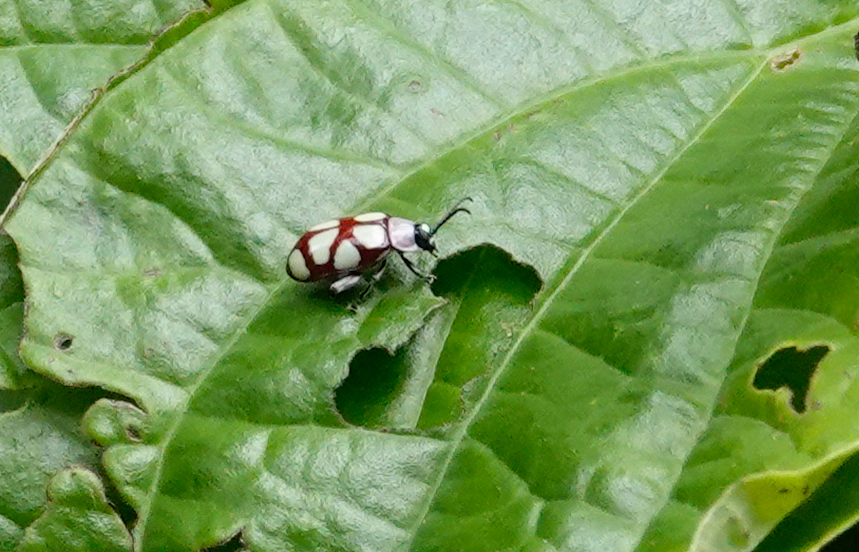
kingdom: Animalia
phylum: Arthropoda
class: Insecta
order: Coleoptera
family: Chrysomelidae
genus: Omophoita
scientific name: Omophoita
